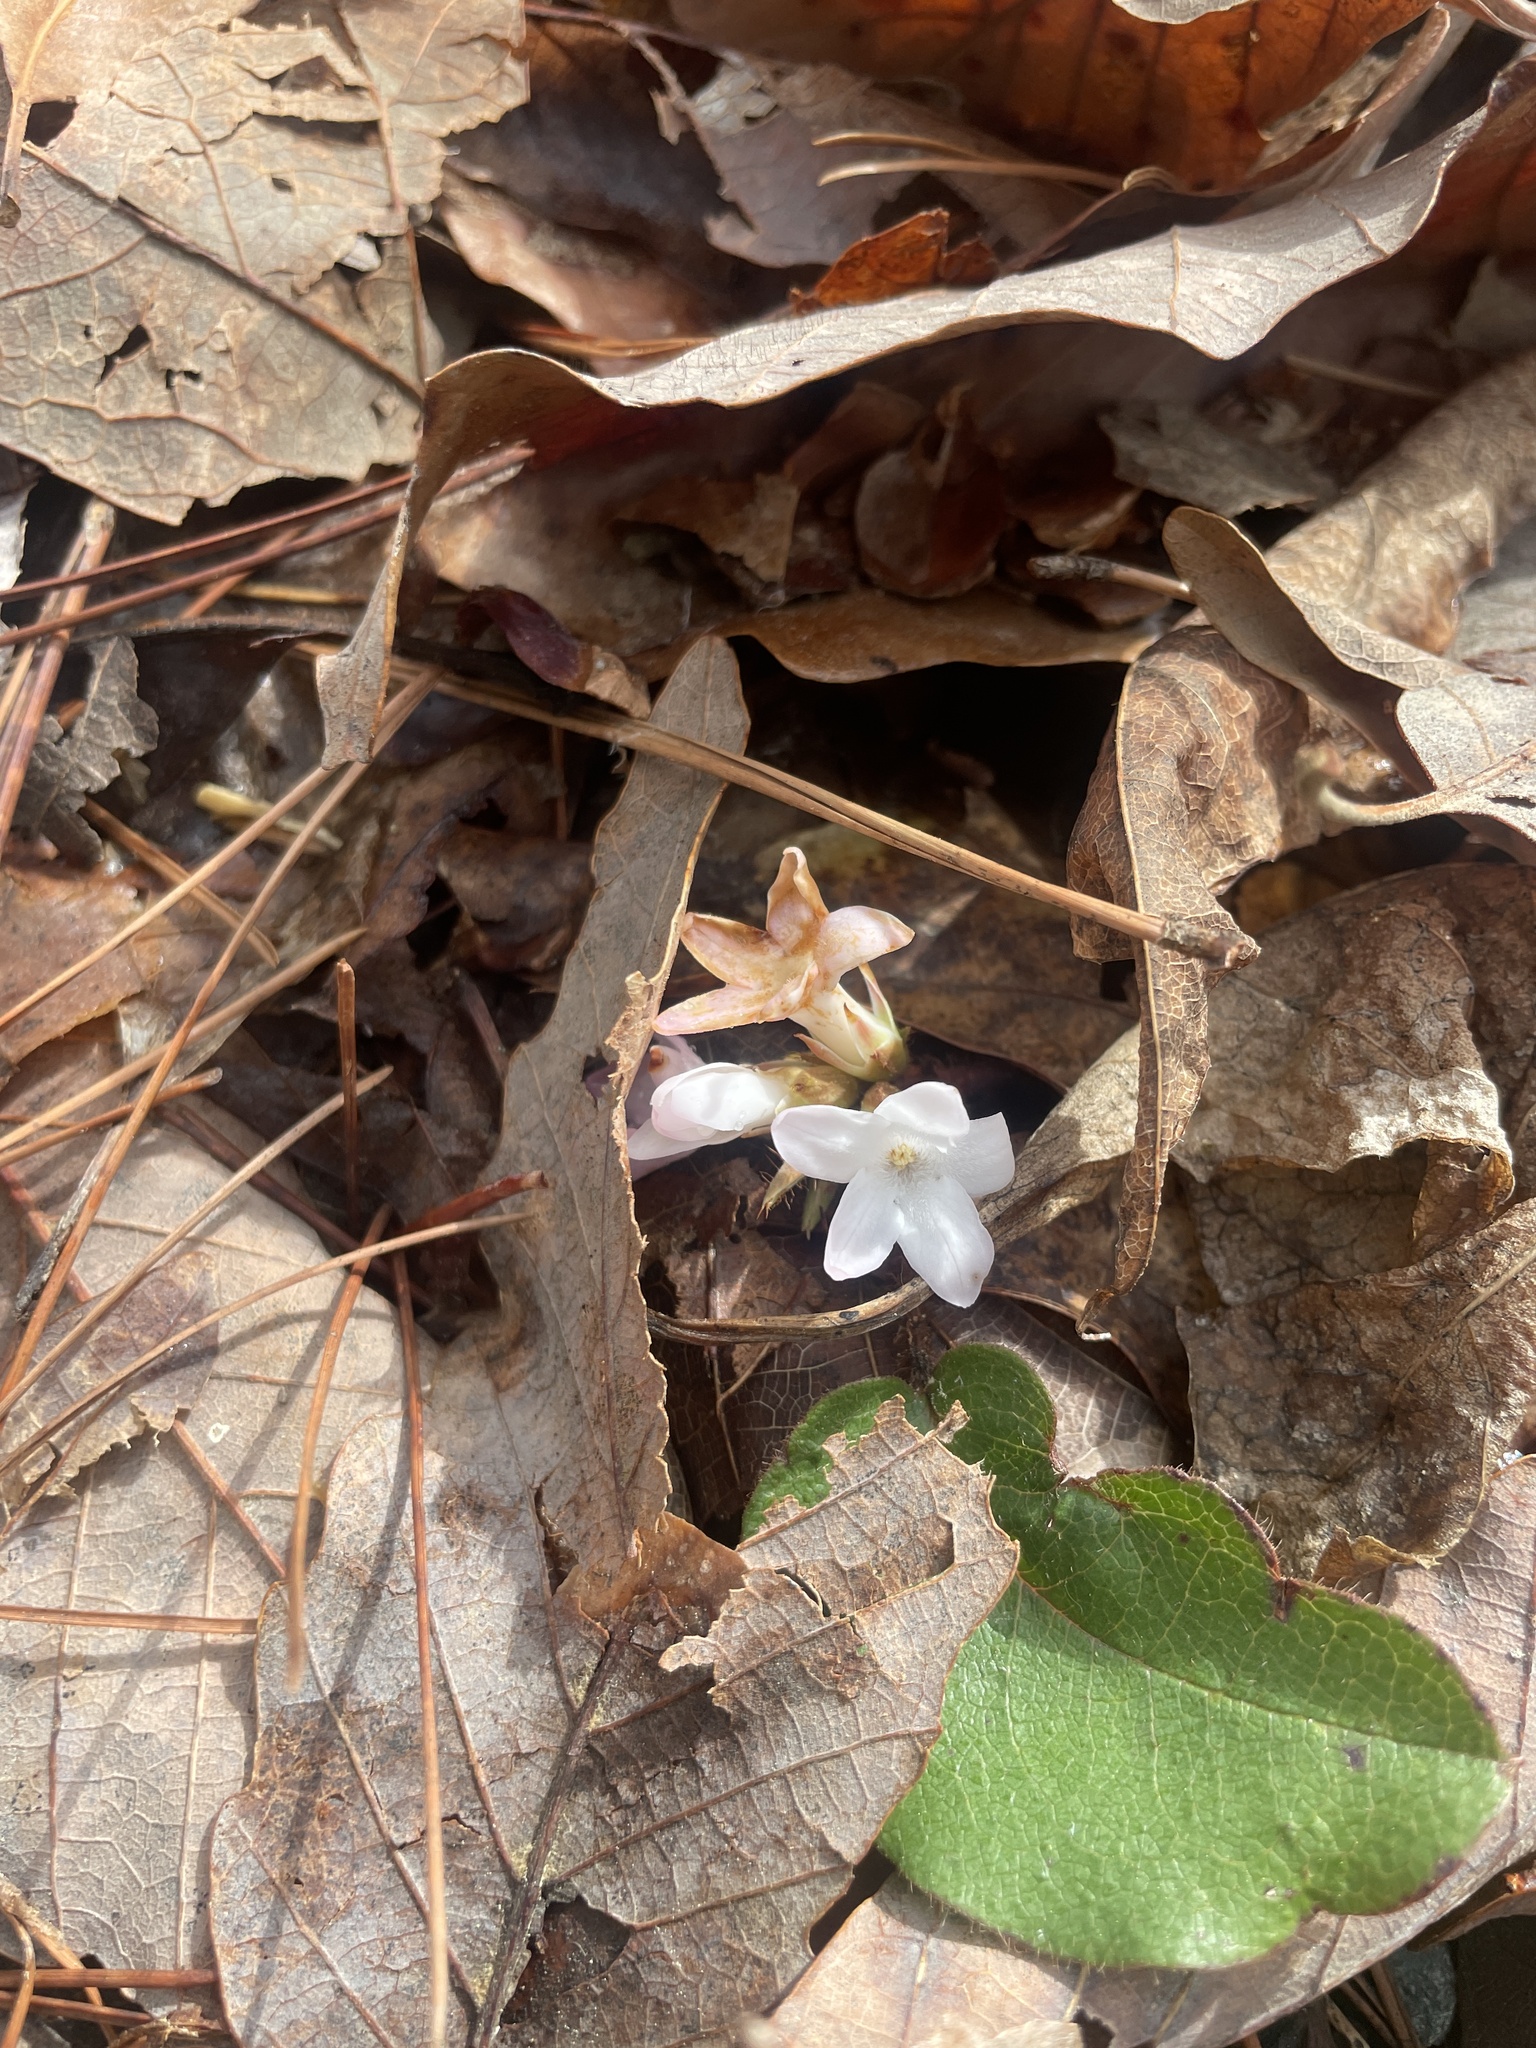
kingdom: Plantae
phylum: Tracheophyta
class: Magnoliopsida
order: Ericales
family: Ericaceae
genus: Epigaea
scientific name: Epigaea repens
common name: Gravelroot
